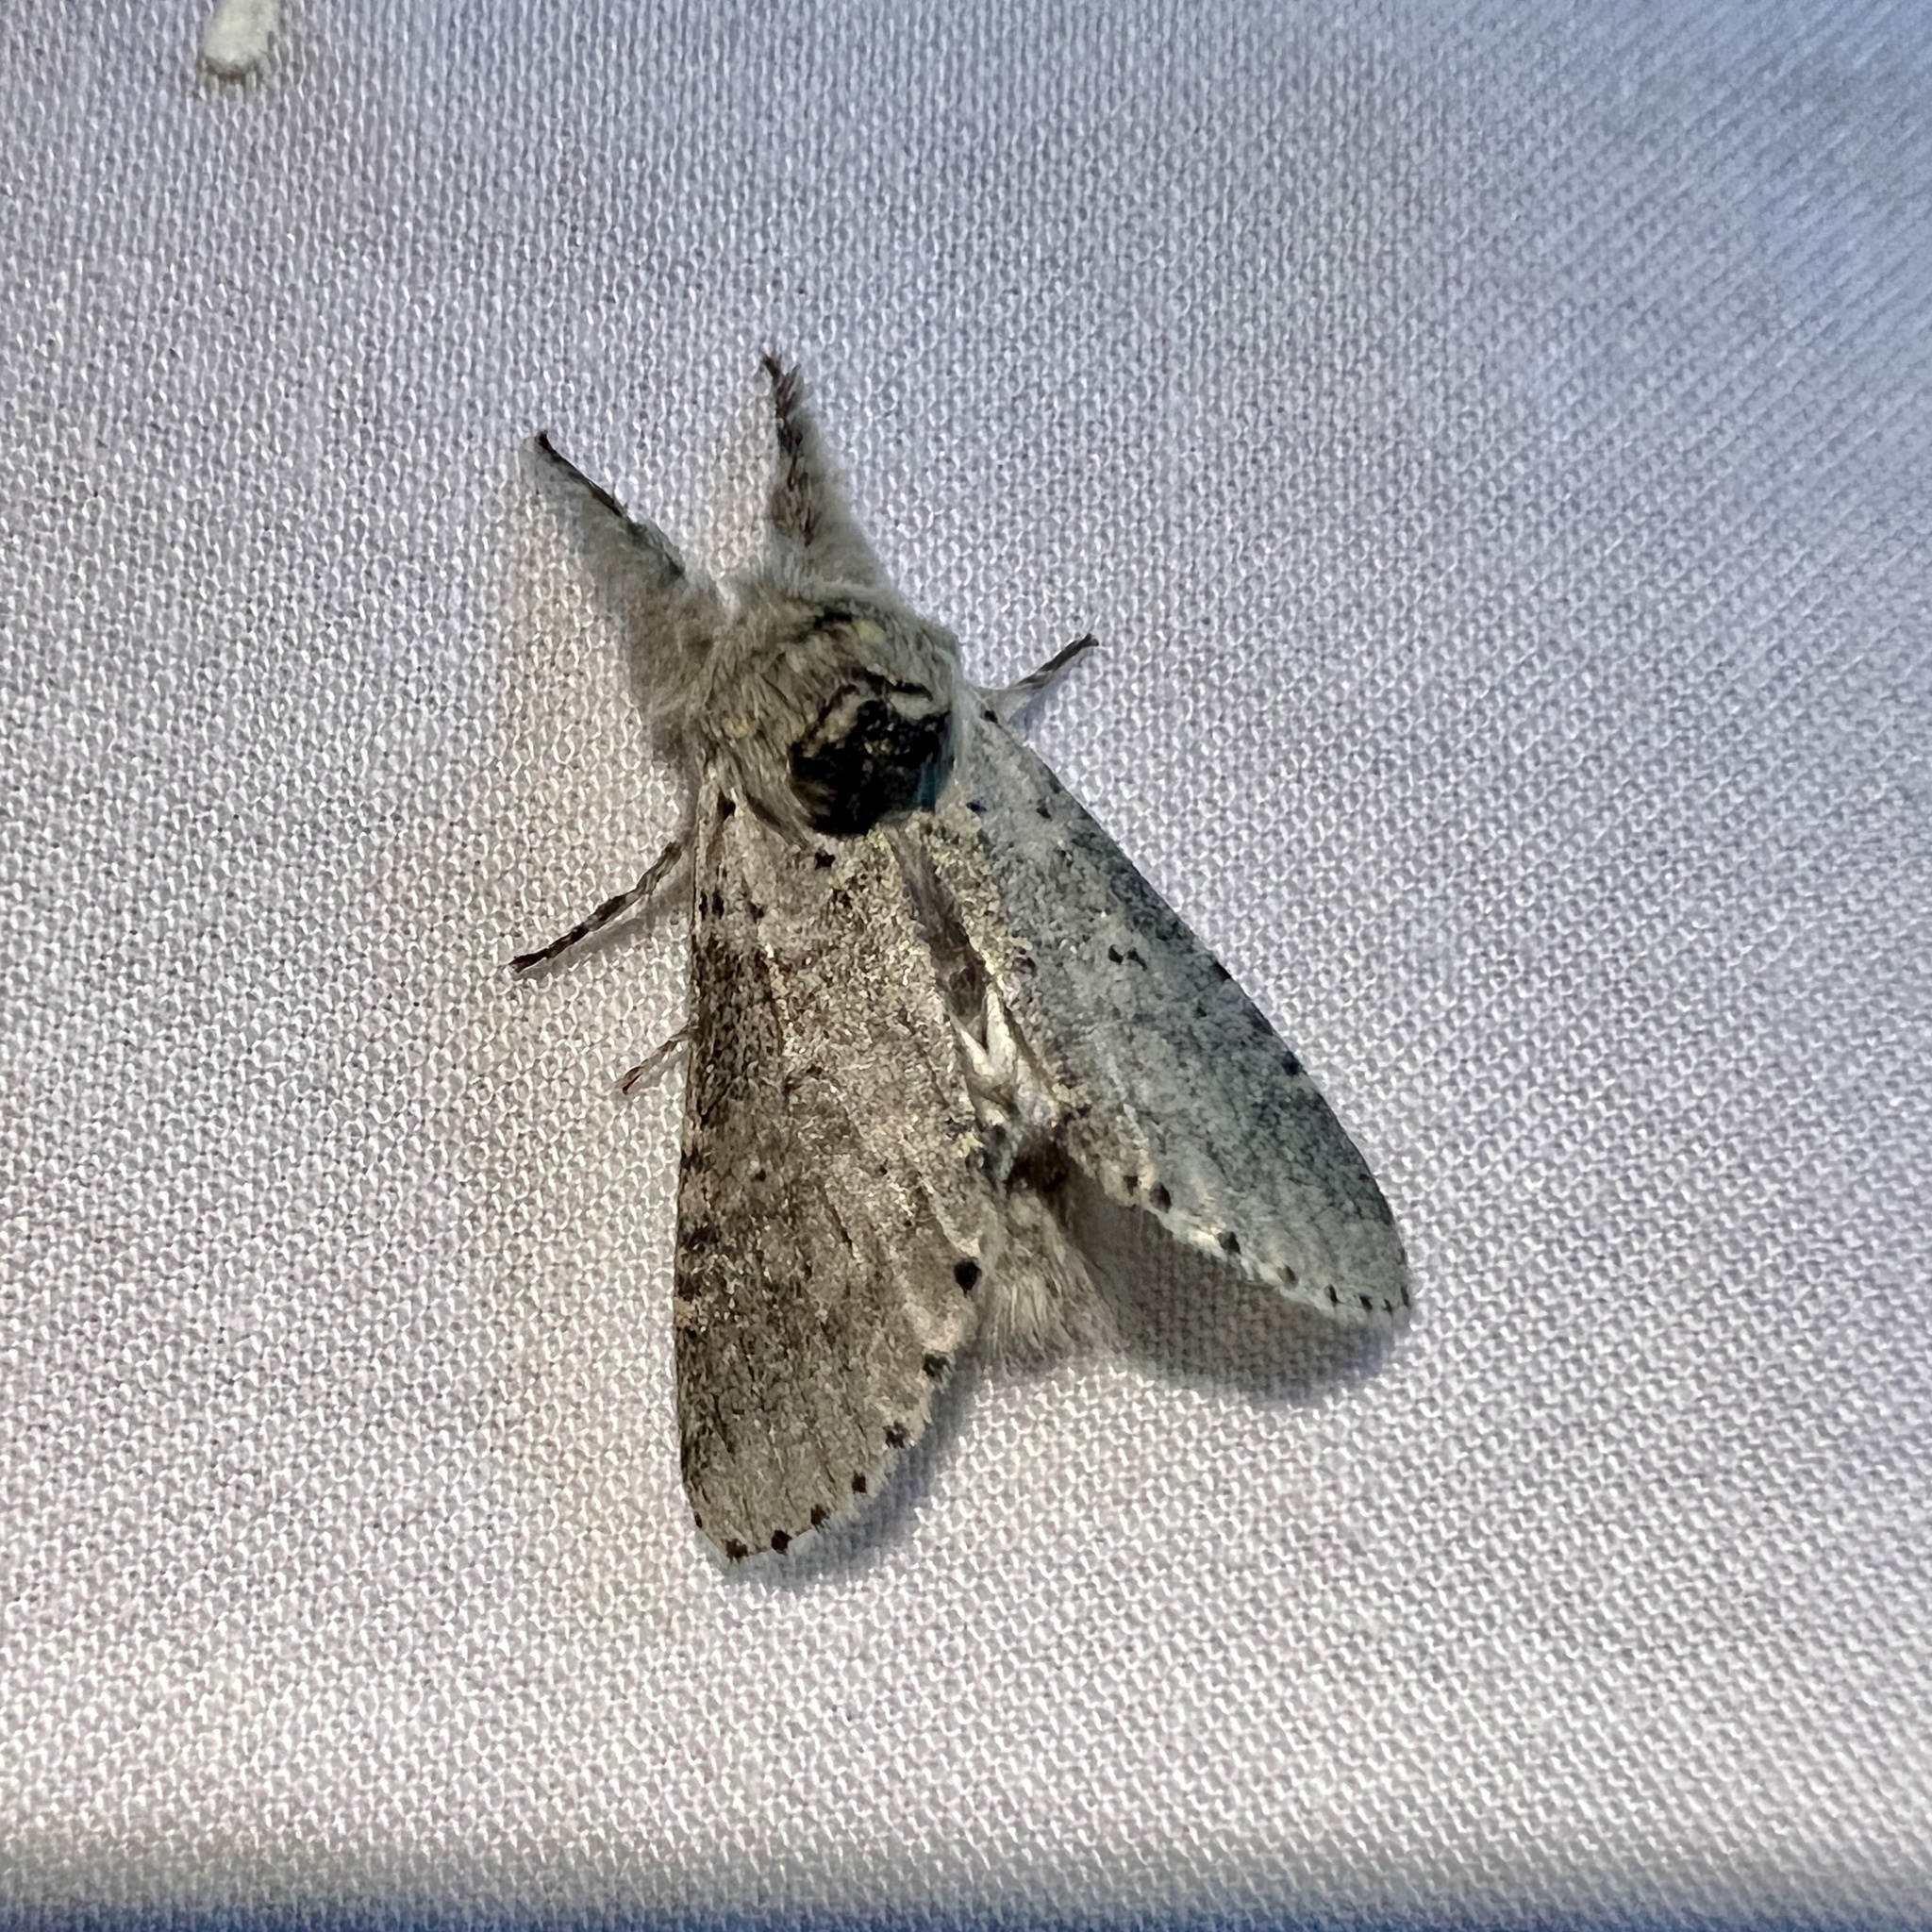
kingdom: Animalia
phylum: Arthropoda
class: Insecta
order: Lepidoptera
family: Notodontidae
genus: Furcula
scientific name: Furcula cinerea
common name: Gray furcula
